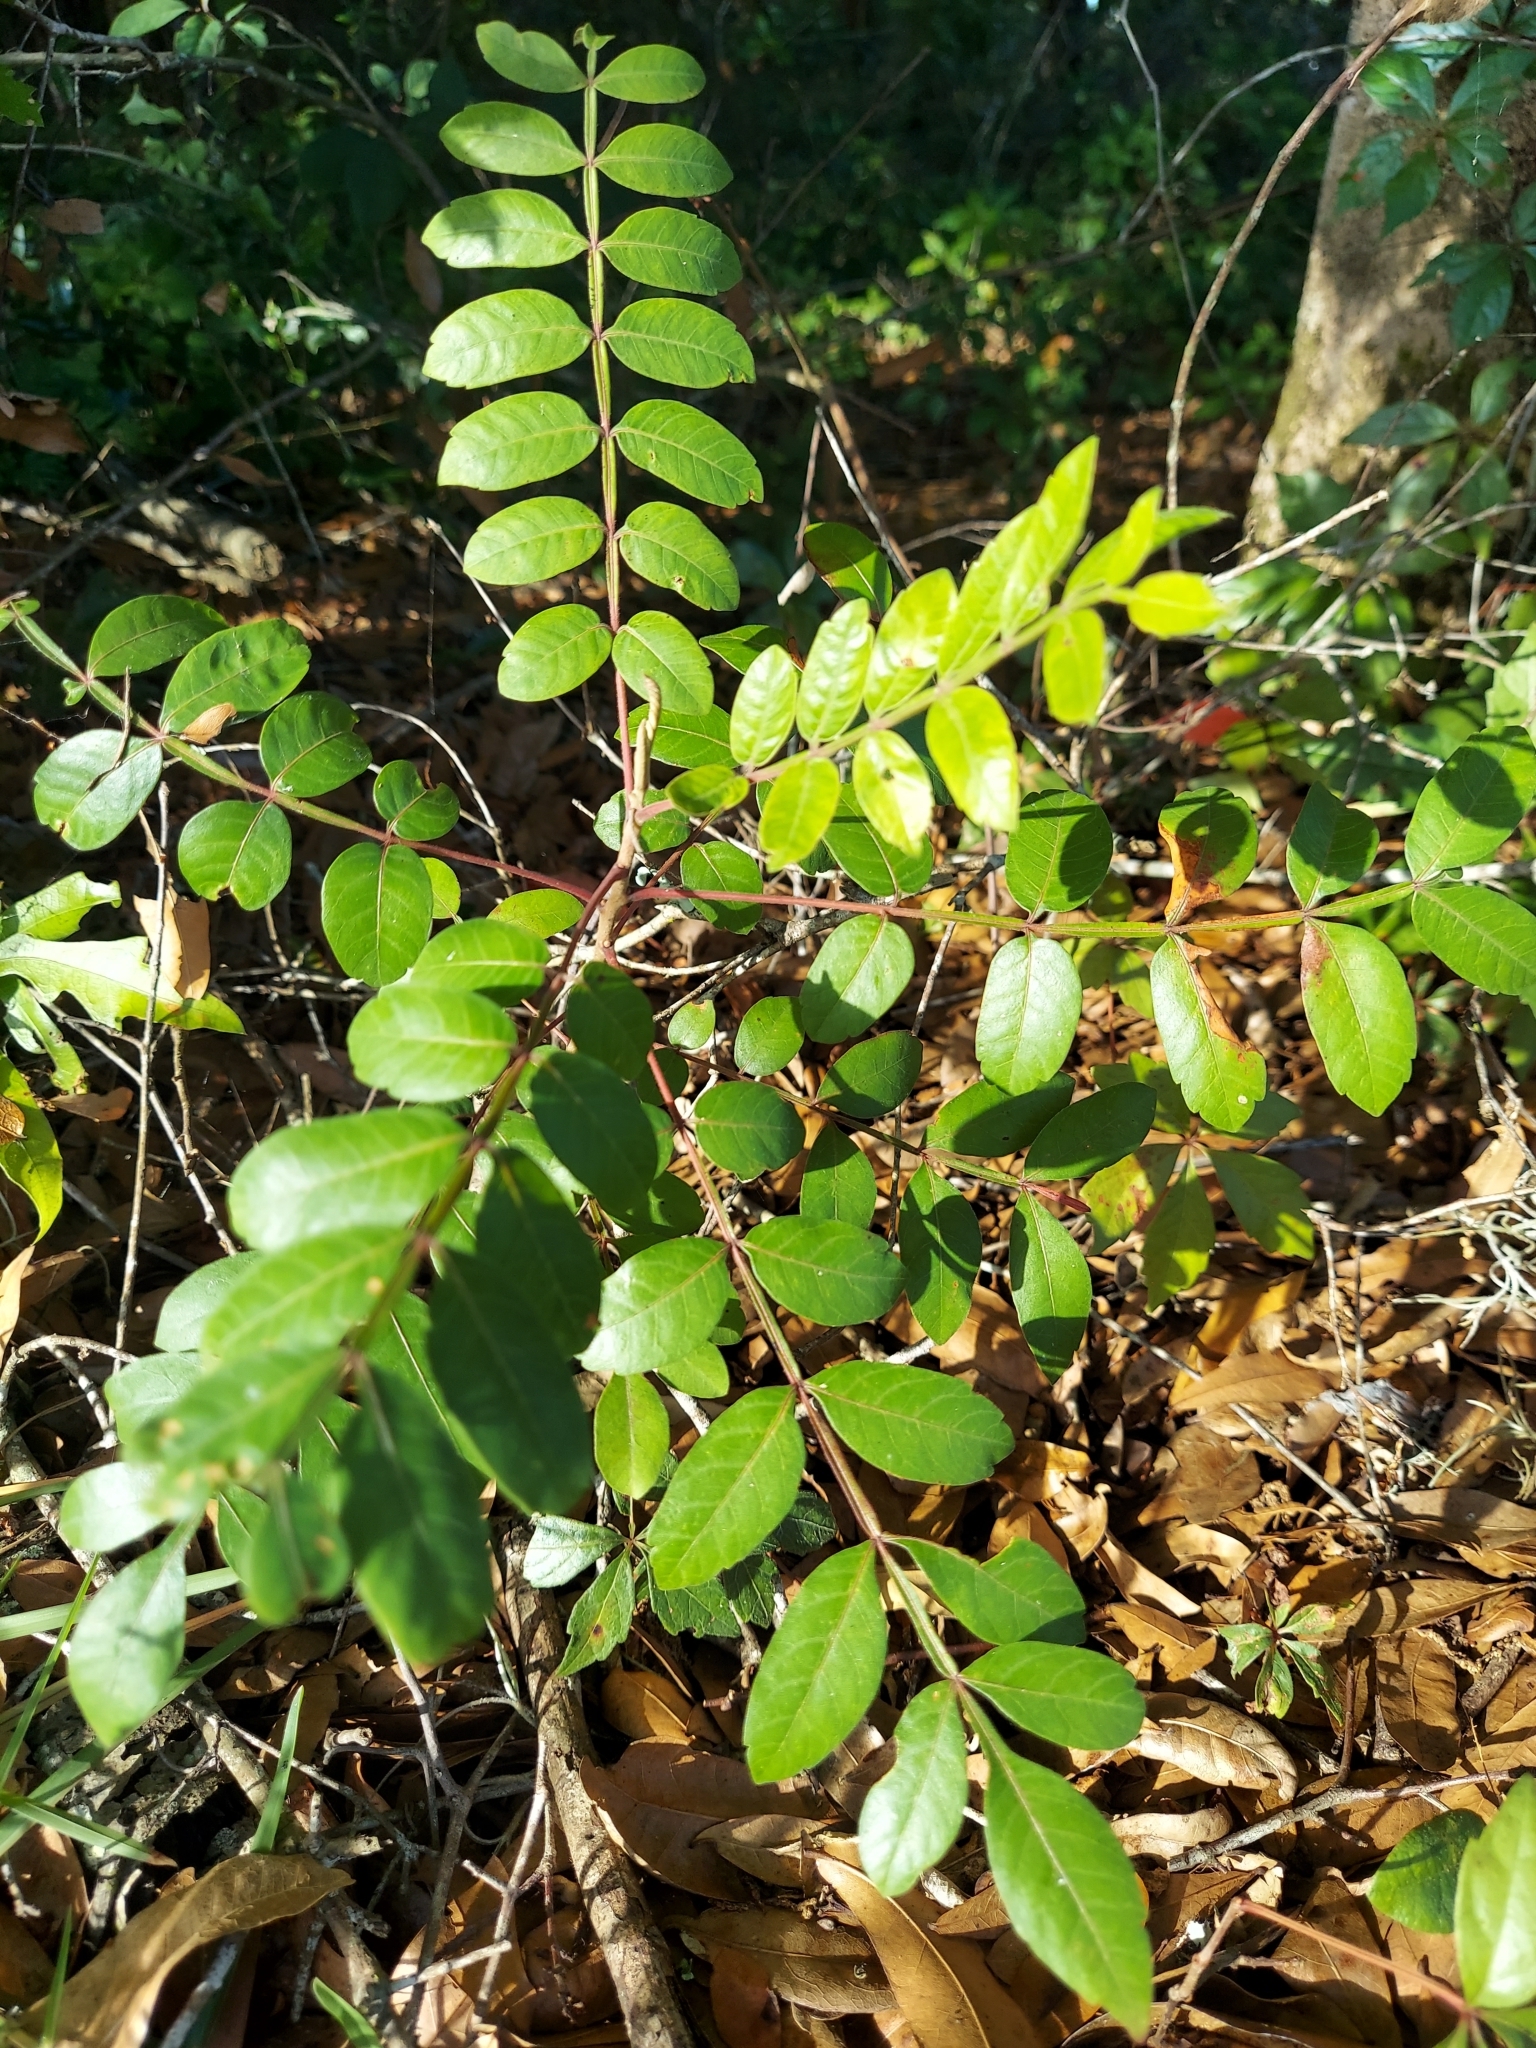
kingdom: Plantae
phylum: Tracheophyta
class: Magnoliopsida
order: Sapindales
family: Anacardiaceae
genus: Rhus
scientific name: Rhus copallina
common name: Shining sumac
